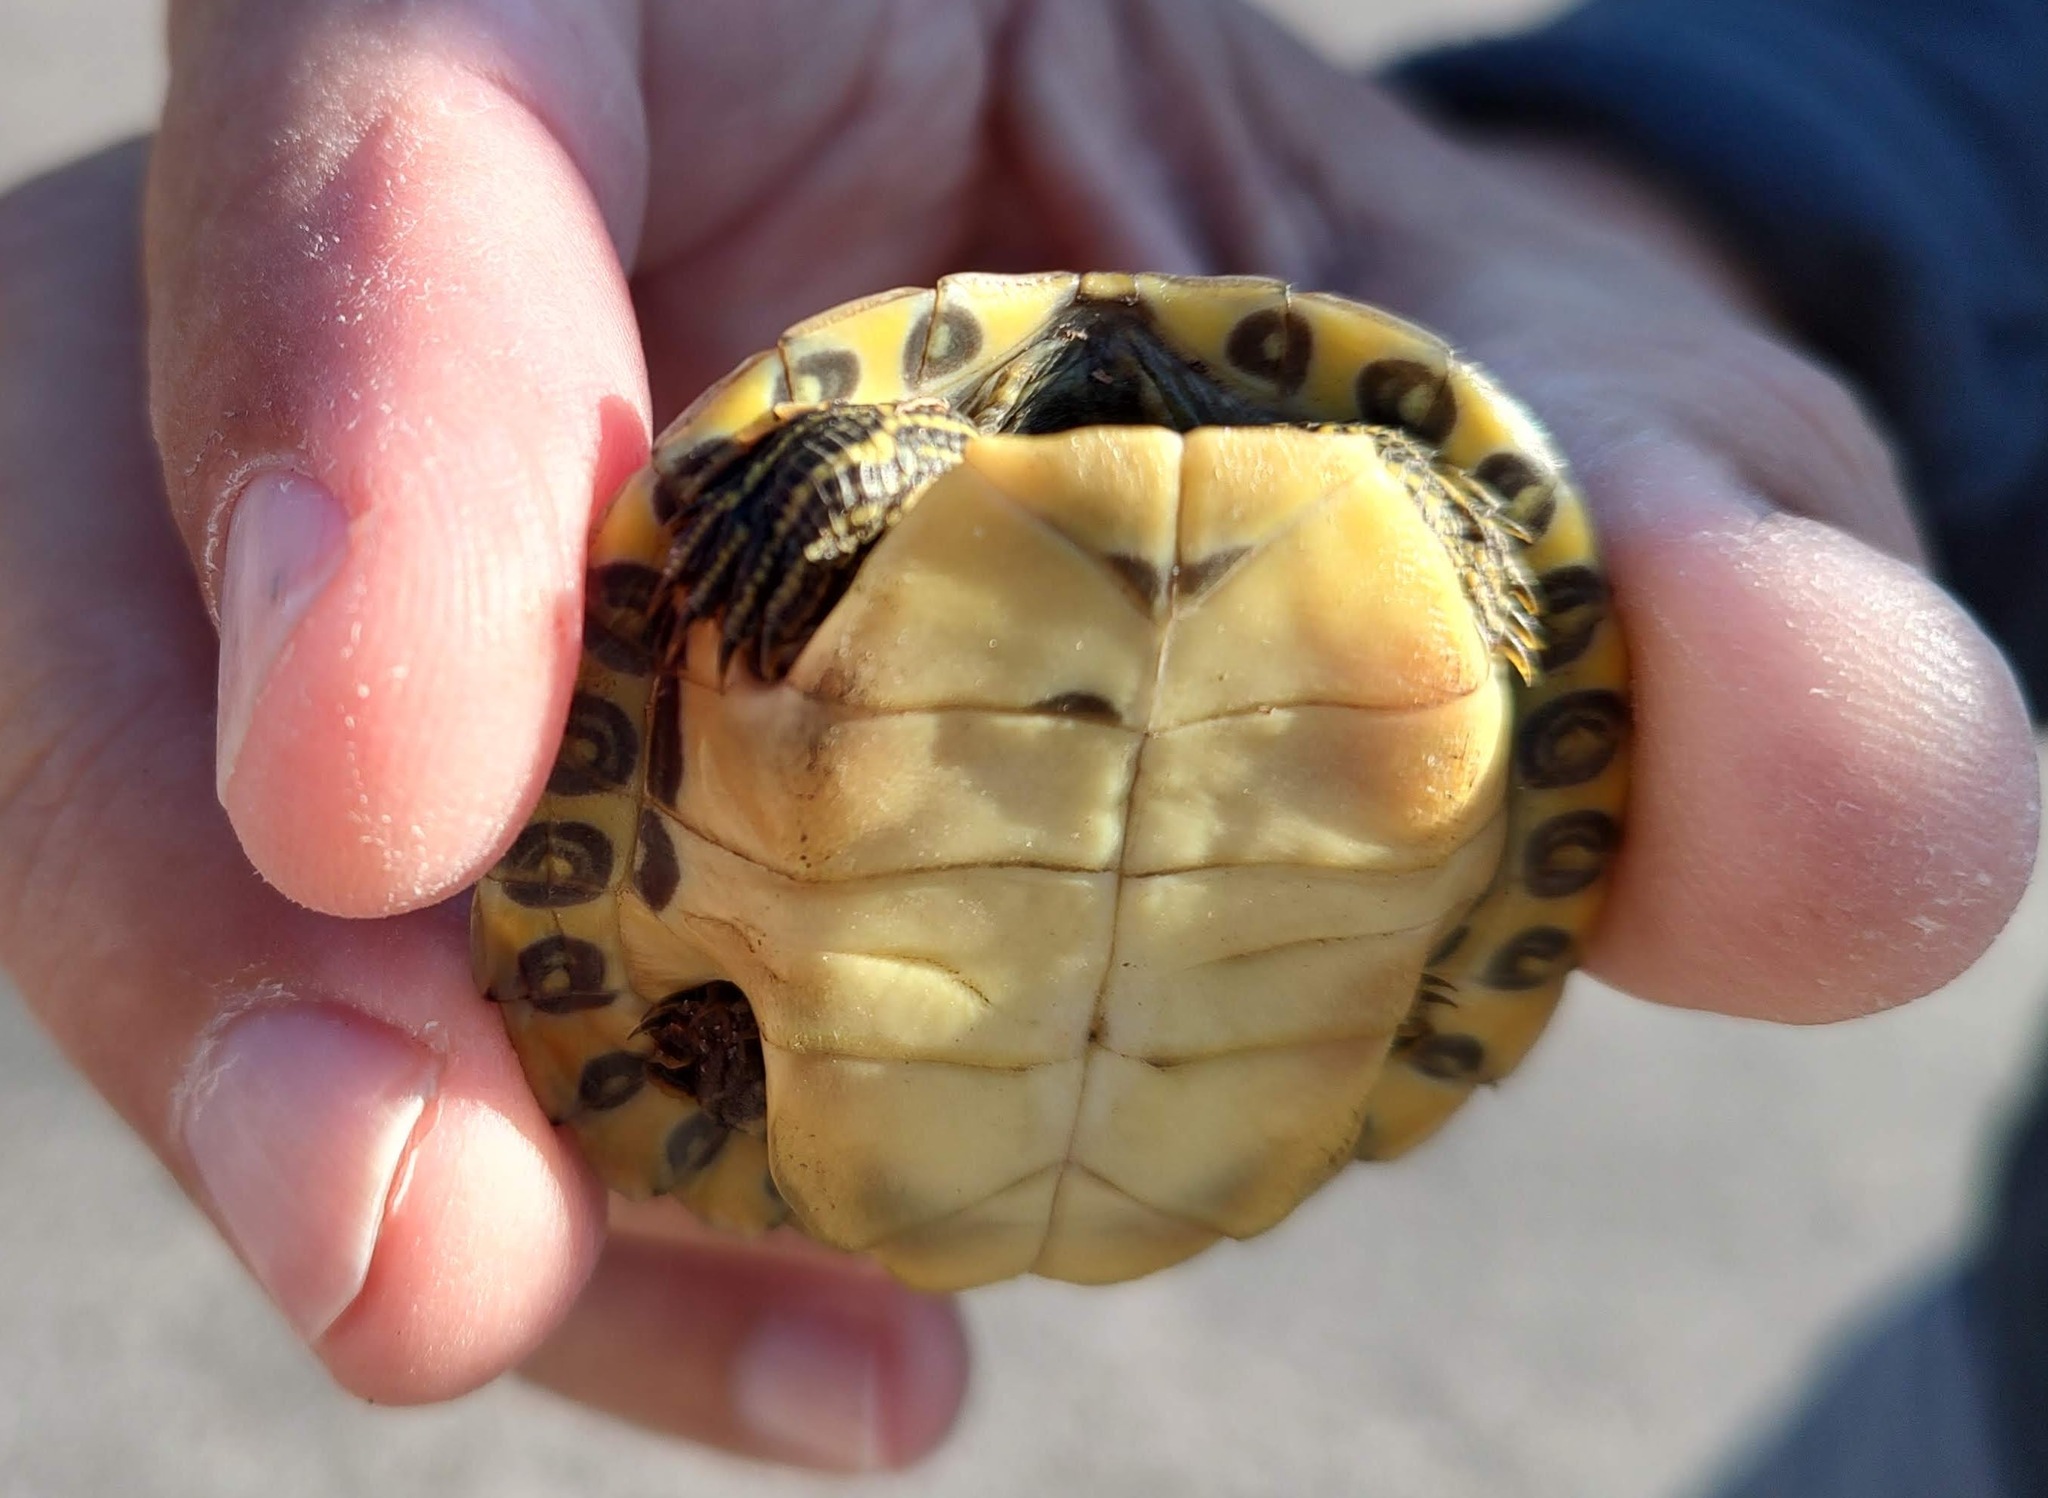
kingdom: Animalia
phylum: Chordata
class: Testudines
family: Emydidae
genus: Pseudemys
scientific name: Pseudemys concinna
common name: Eastern river cooter
